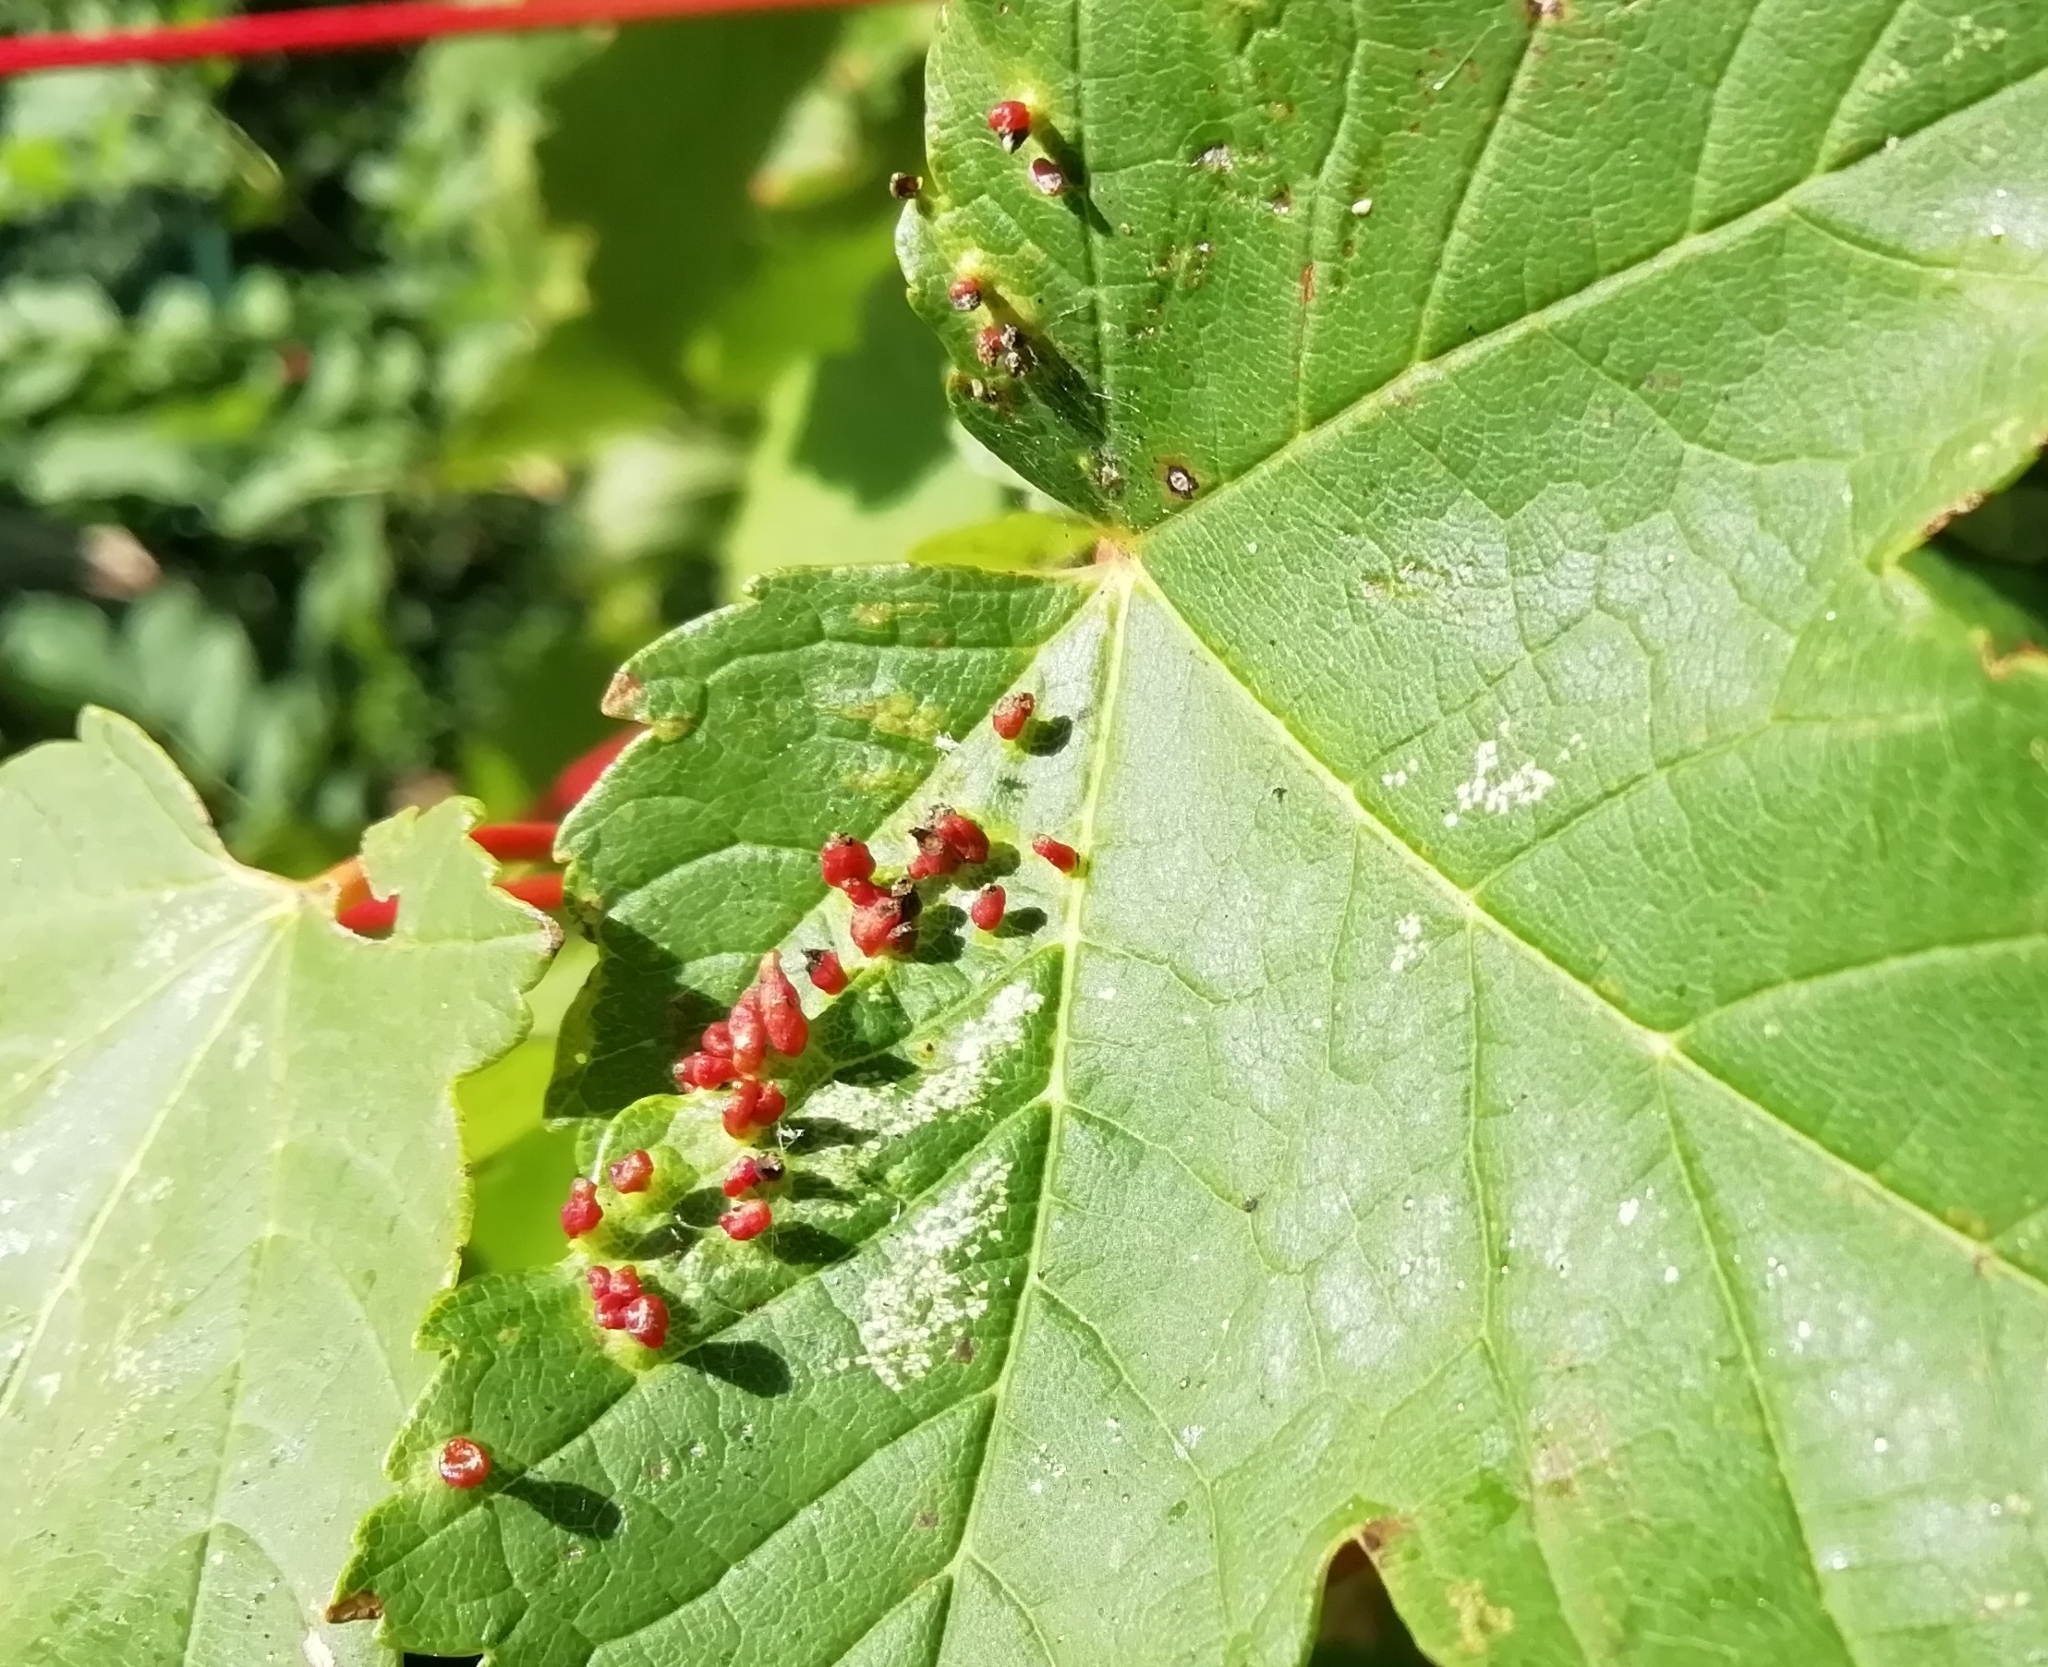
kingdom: Animalia
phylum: Arthropoda
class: Arachnida
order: Trombidiformes
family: Eriophyidae
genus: Aceria
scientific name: Aceria cephaloneus
